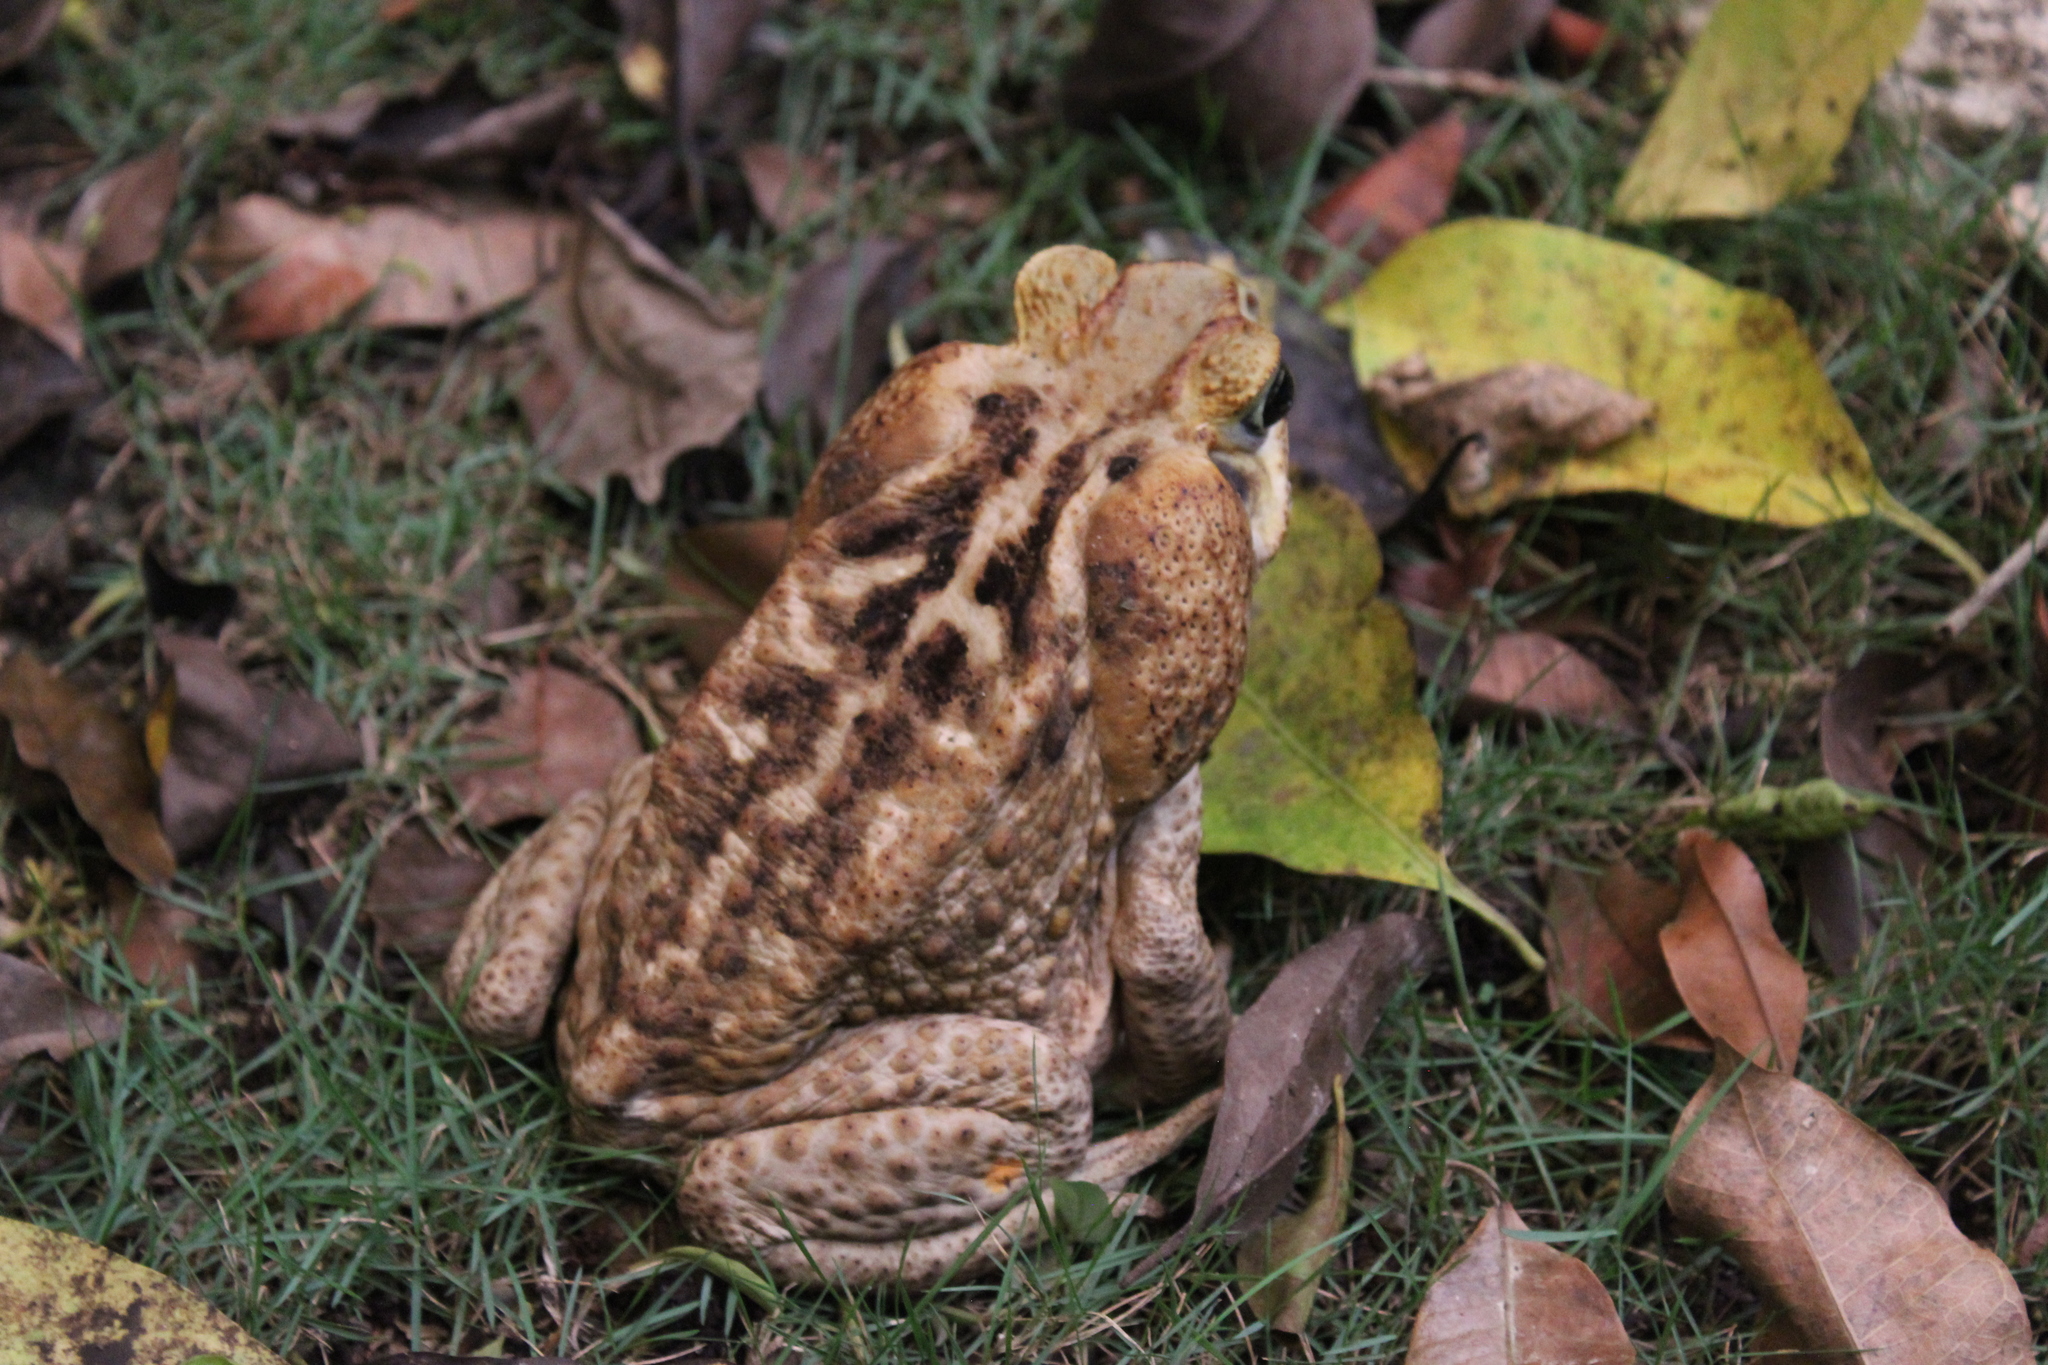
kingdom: Animalia
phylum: Chordata
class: Amphibia
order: Anura
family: Bufonidae
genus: Rhinella
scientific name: Rhinella horribilis
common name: Mesoamerican cane toad
